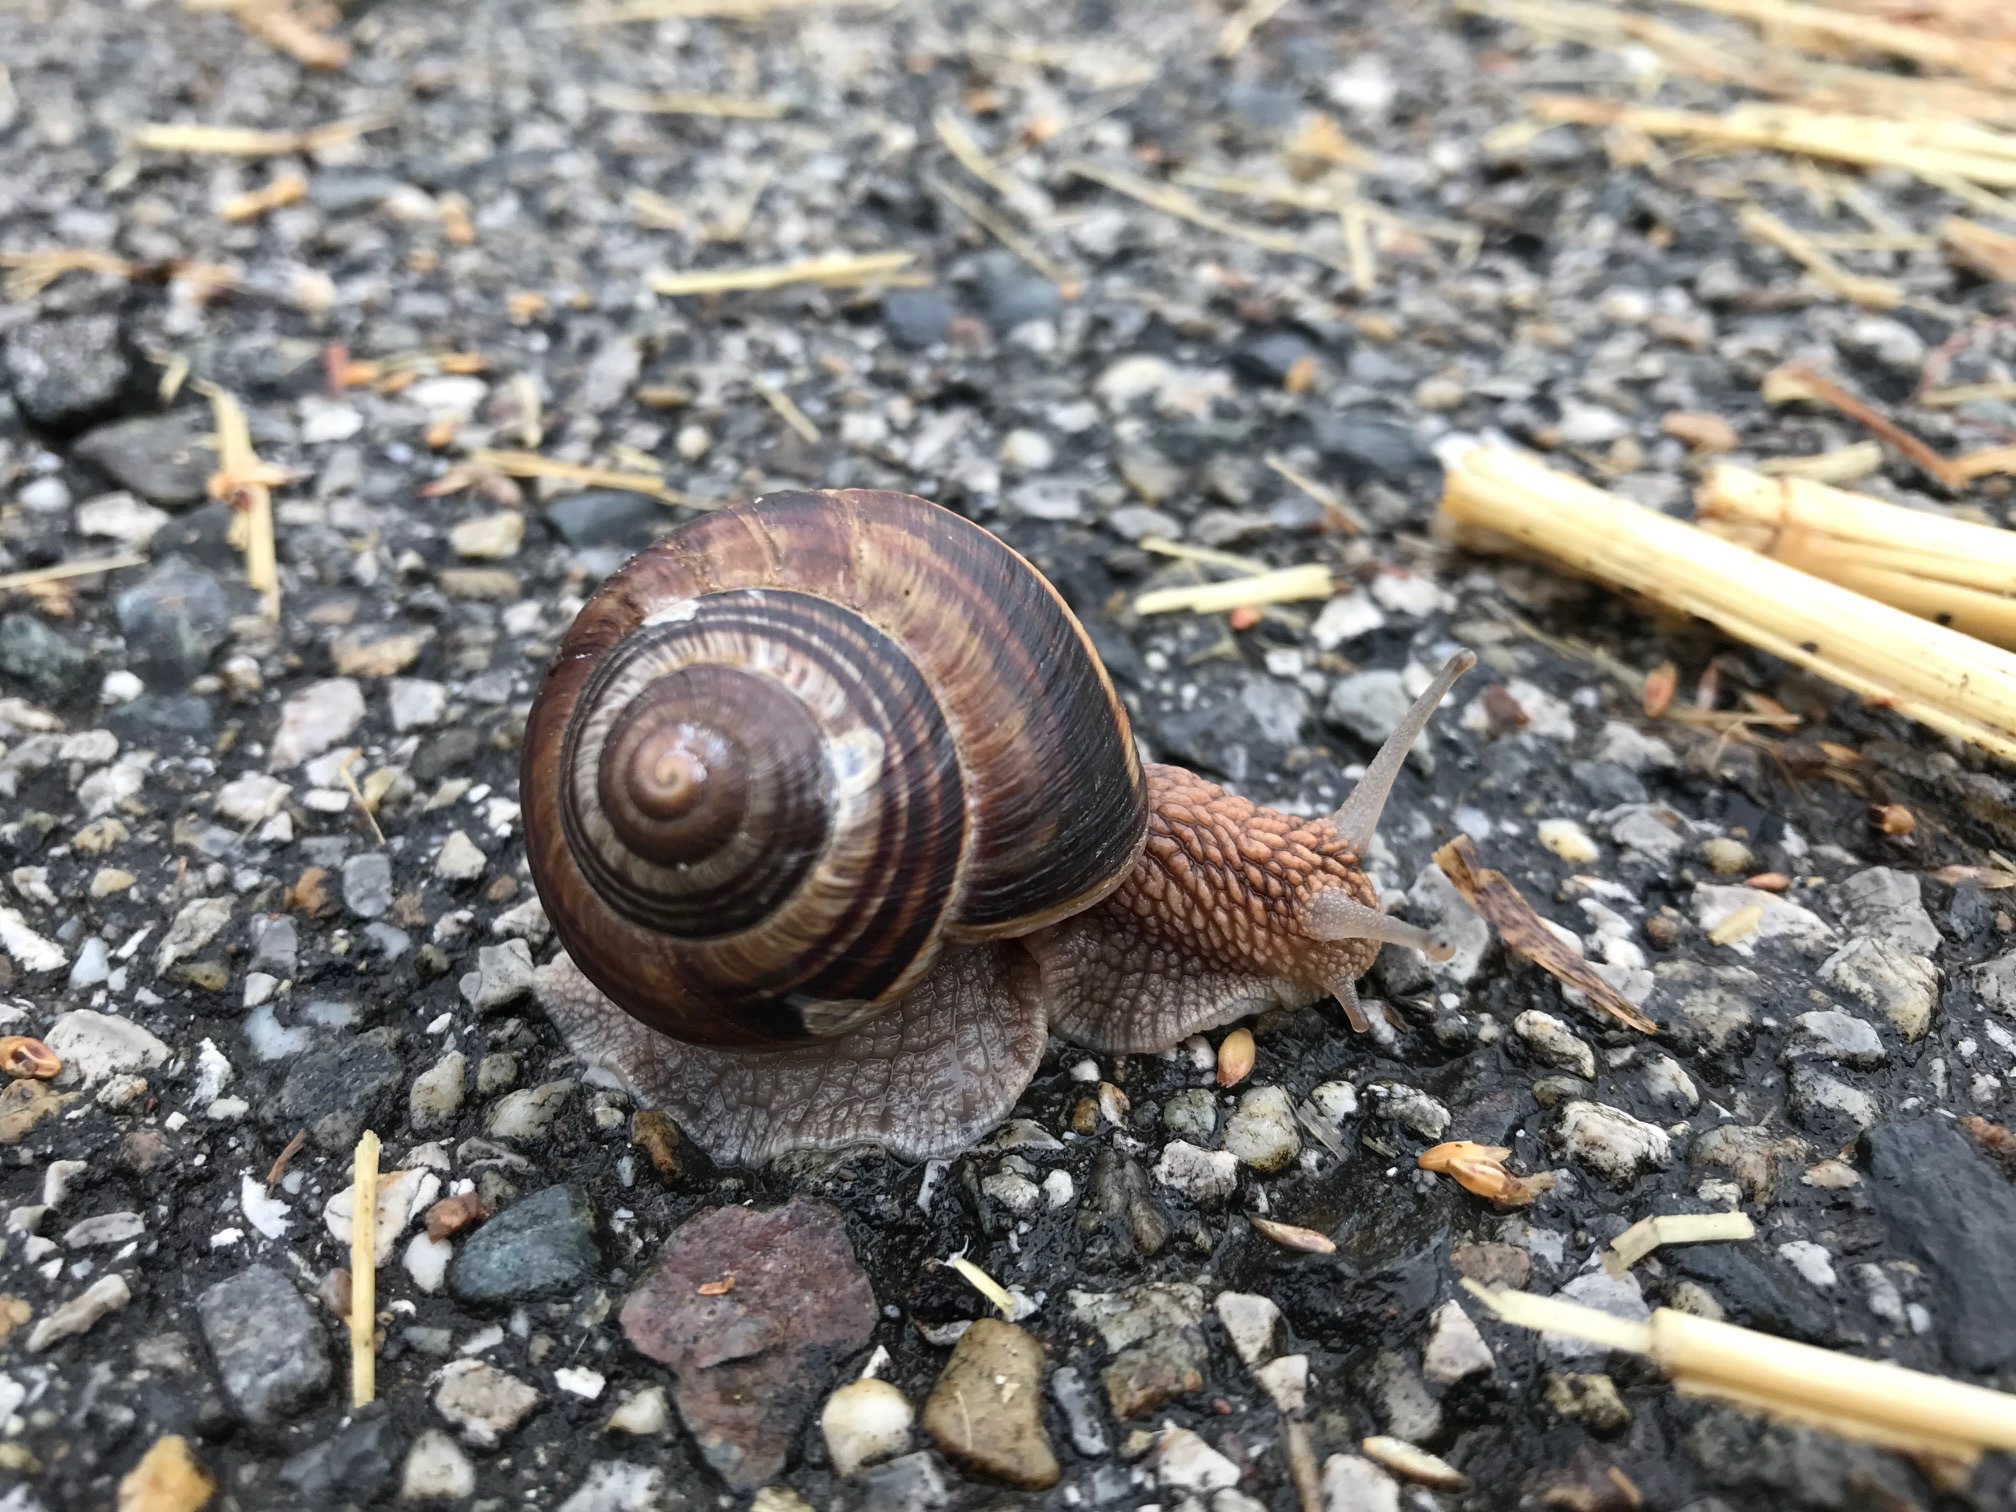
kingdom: Animalia
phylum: Mollusca
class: Gastropoda
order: Stylommatophora
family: Helicidae
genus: Helix
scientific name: Helix lucorum
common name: Turkish snail
